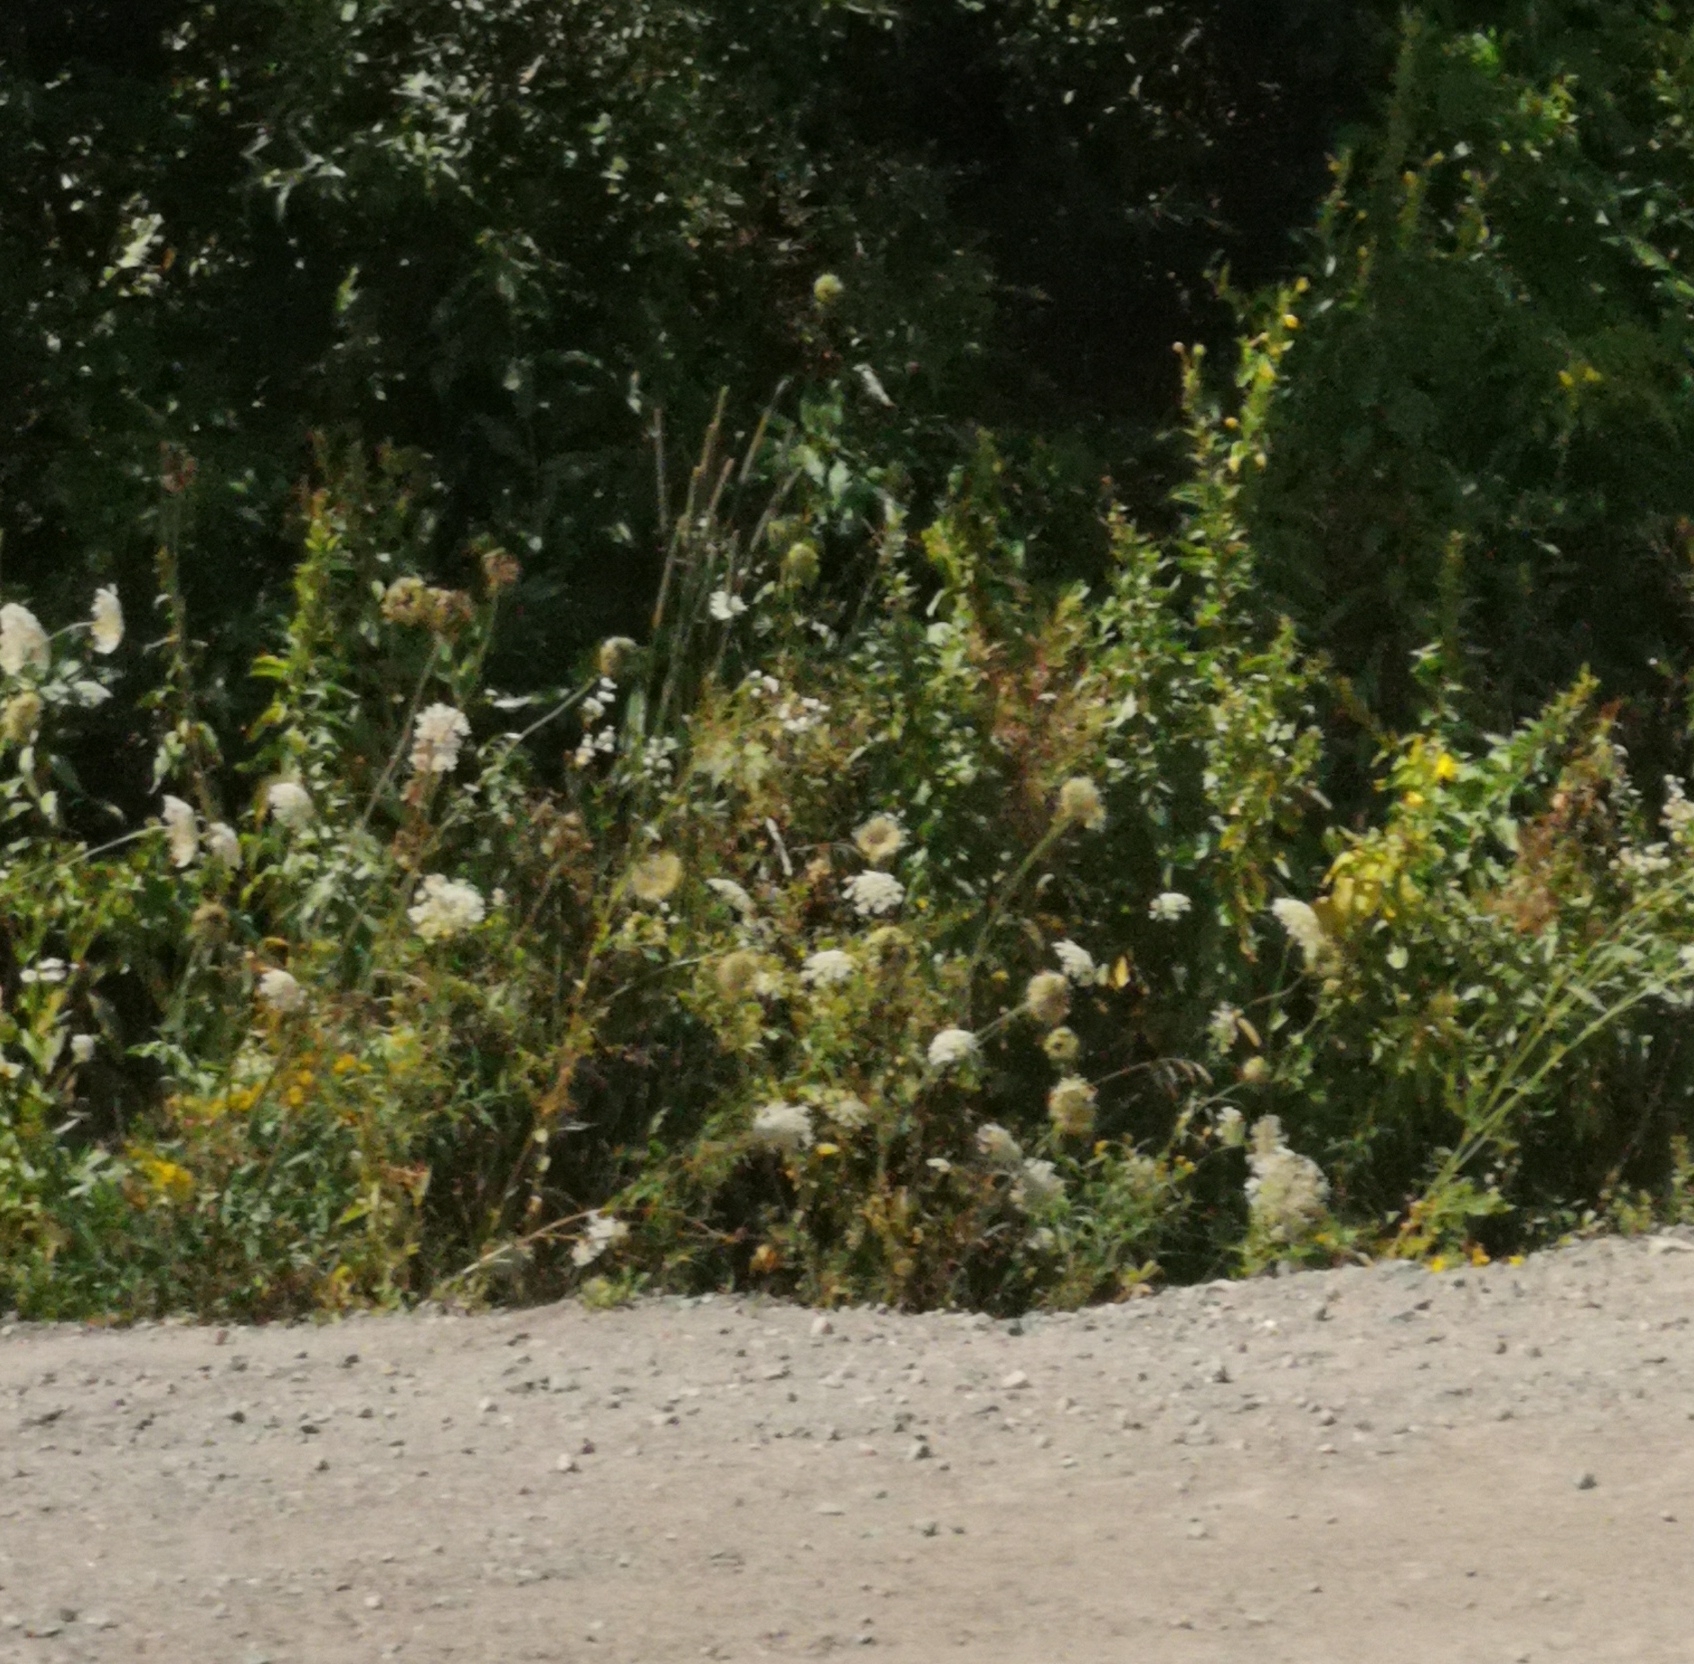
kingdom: Plantae
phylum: Tracheophyta
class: Magnoliopsida
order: Apiales
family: Apiaceae
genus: Daucus
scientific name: Daucus carota
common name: Wild carrot
